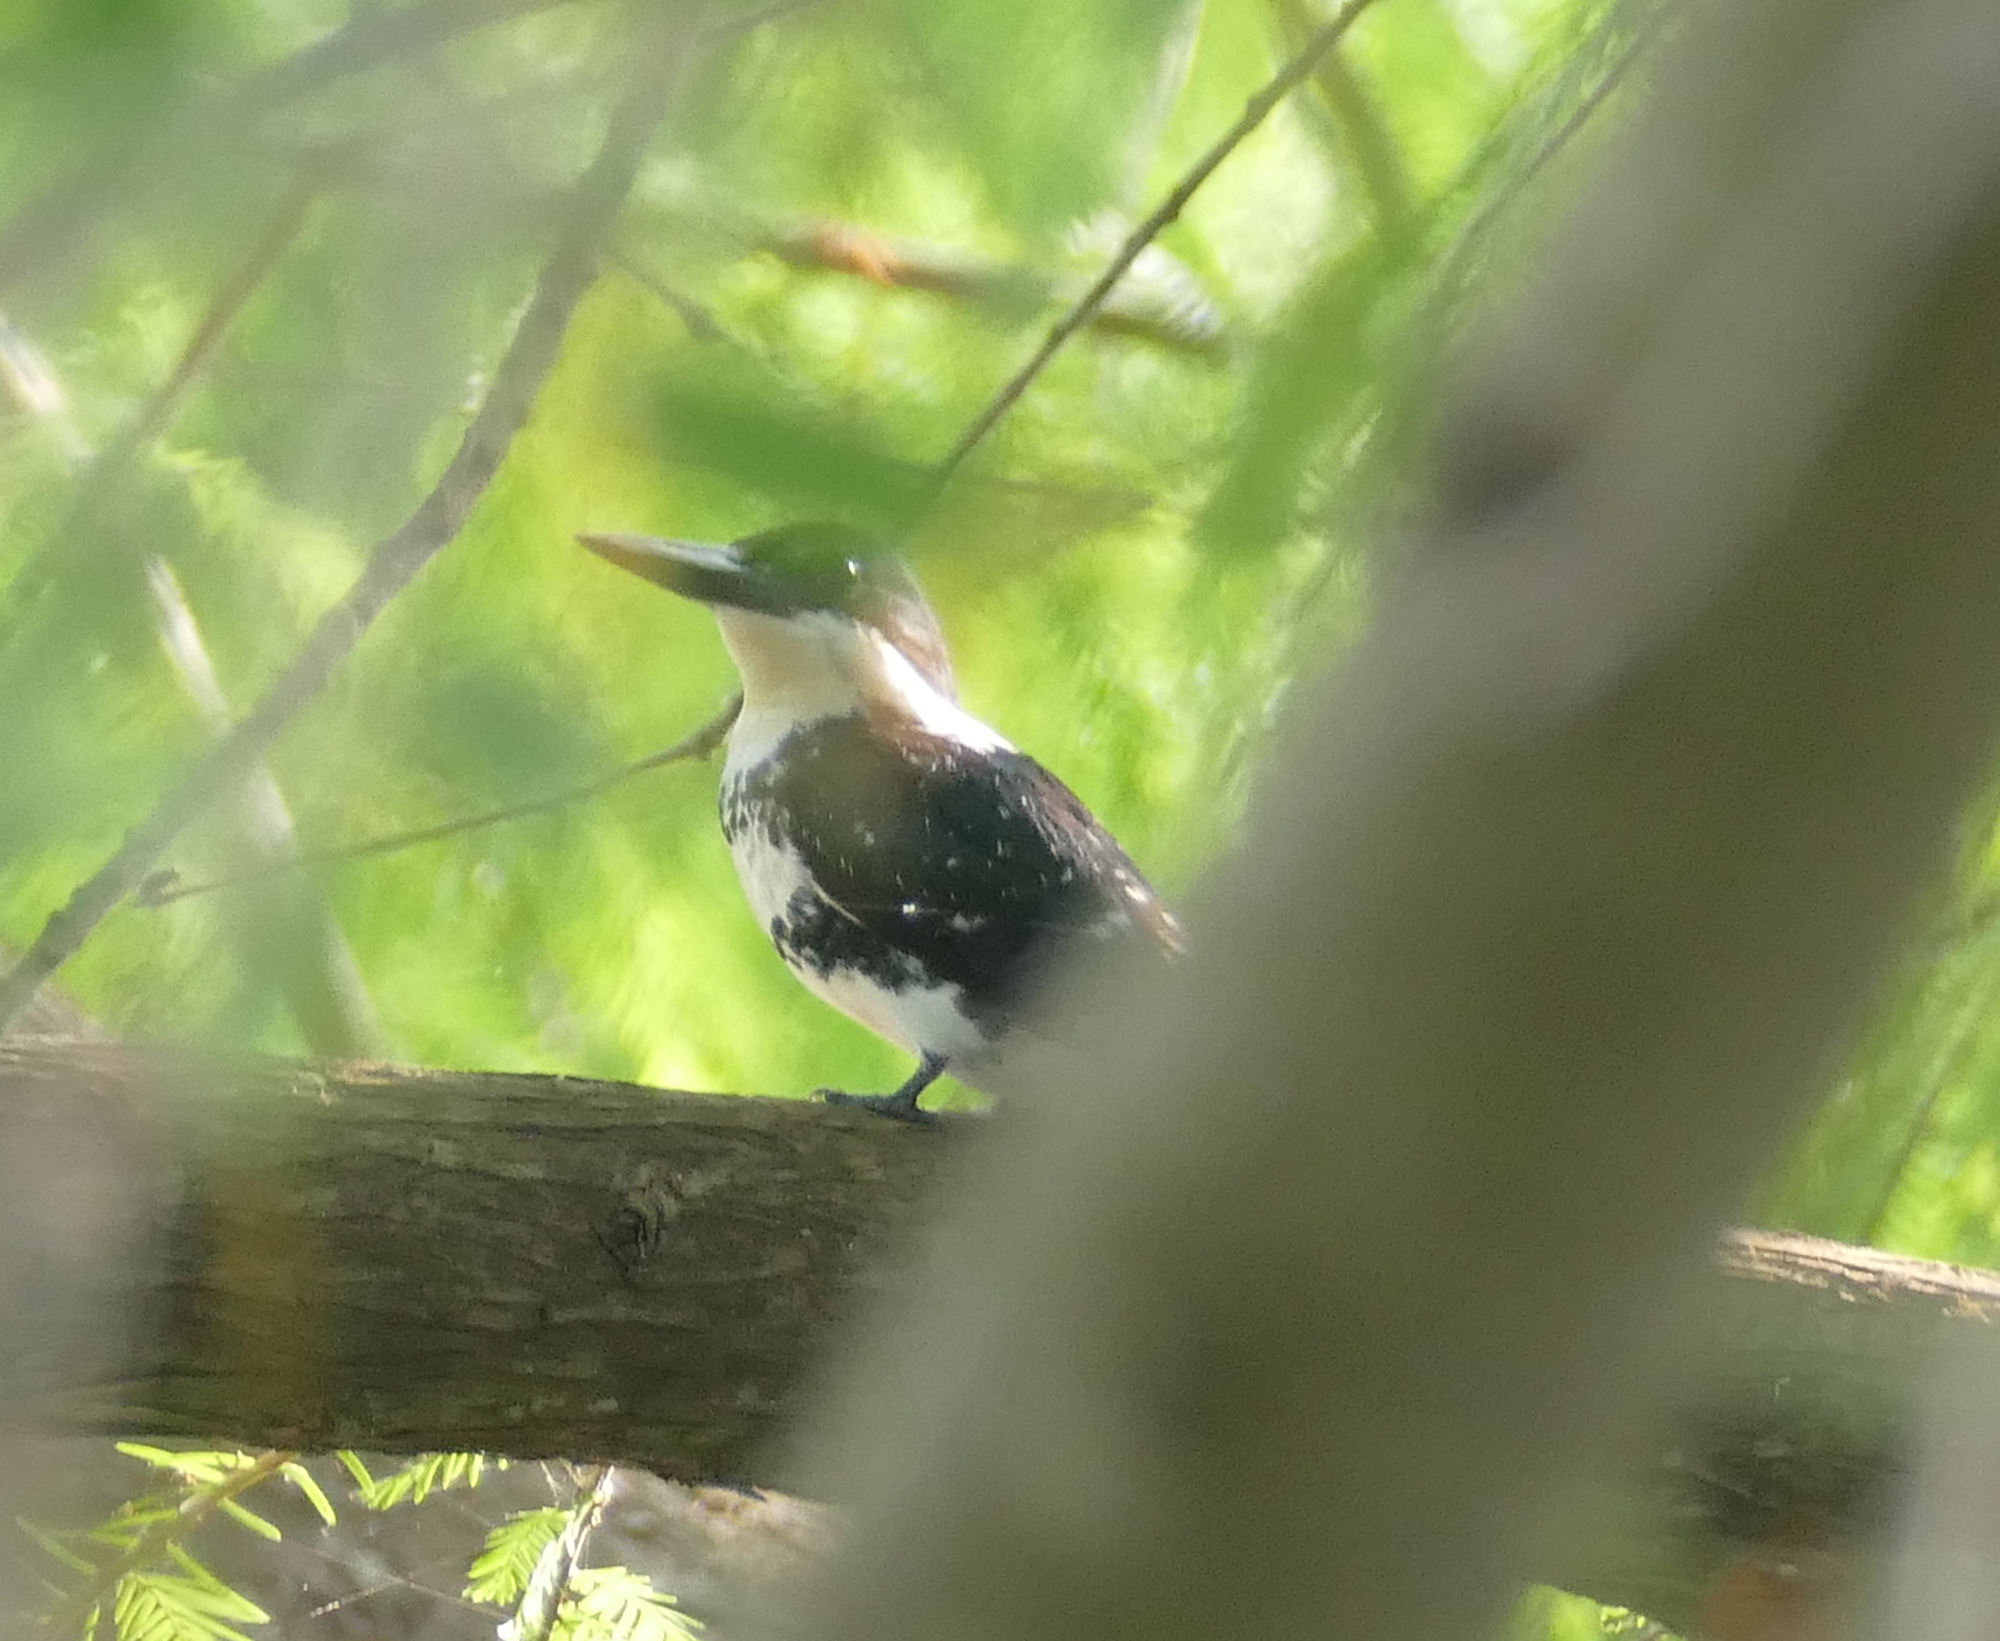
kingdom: Animalia
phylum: Chordata
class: Aves
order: Coraciiformes
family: Alcedinidae
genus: Chloroceryle
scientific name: Chloroceryle americana
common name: Green kingfisher
